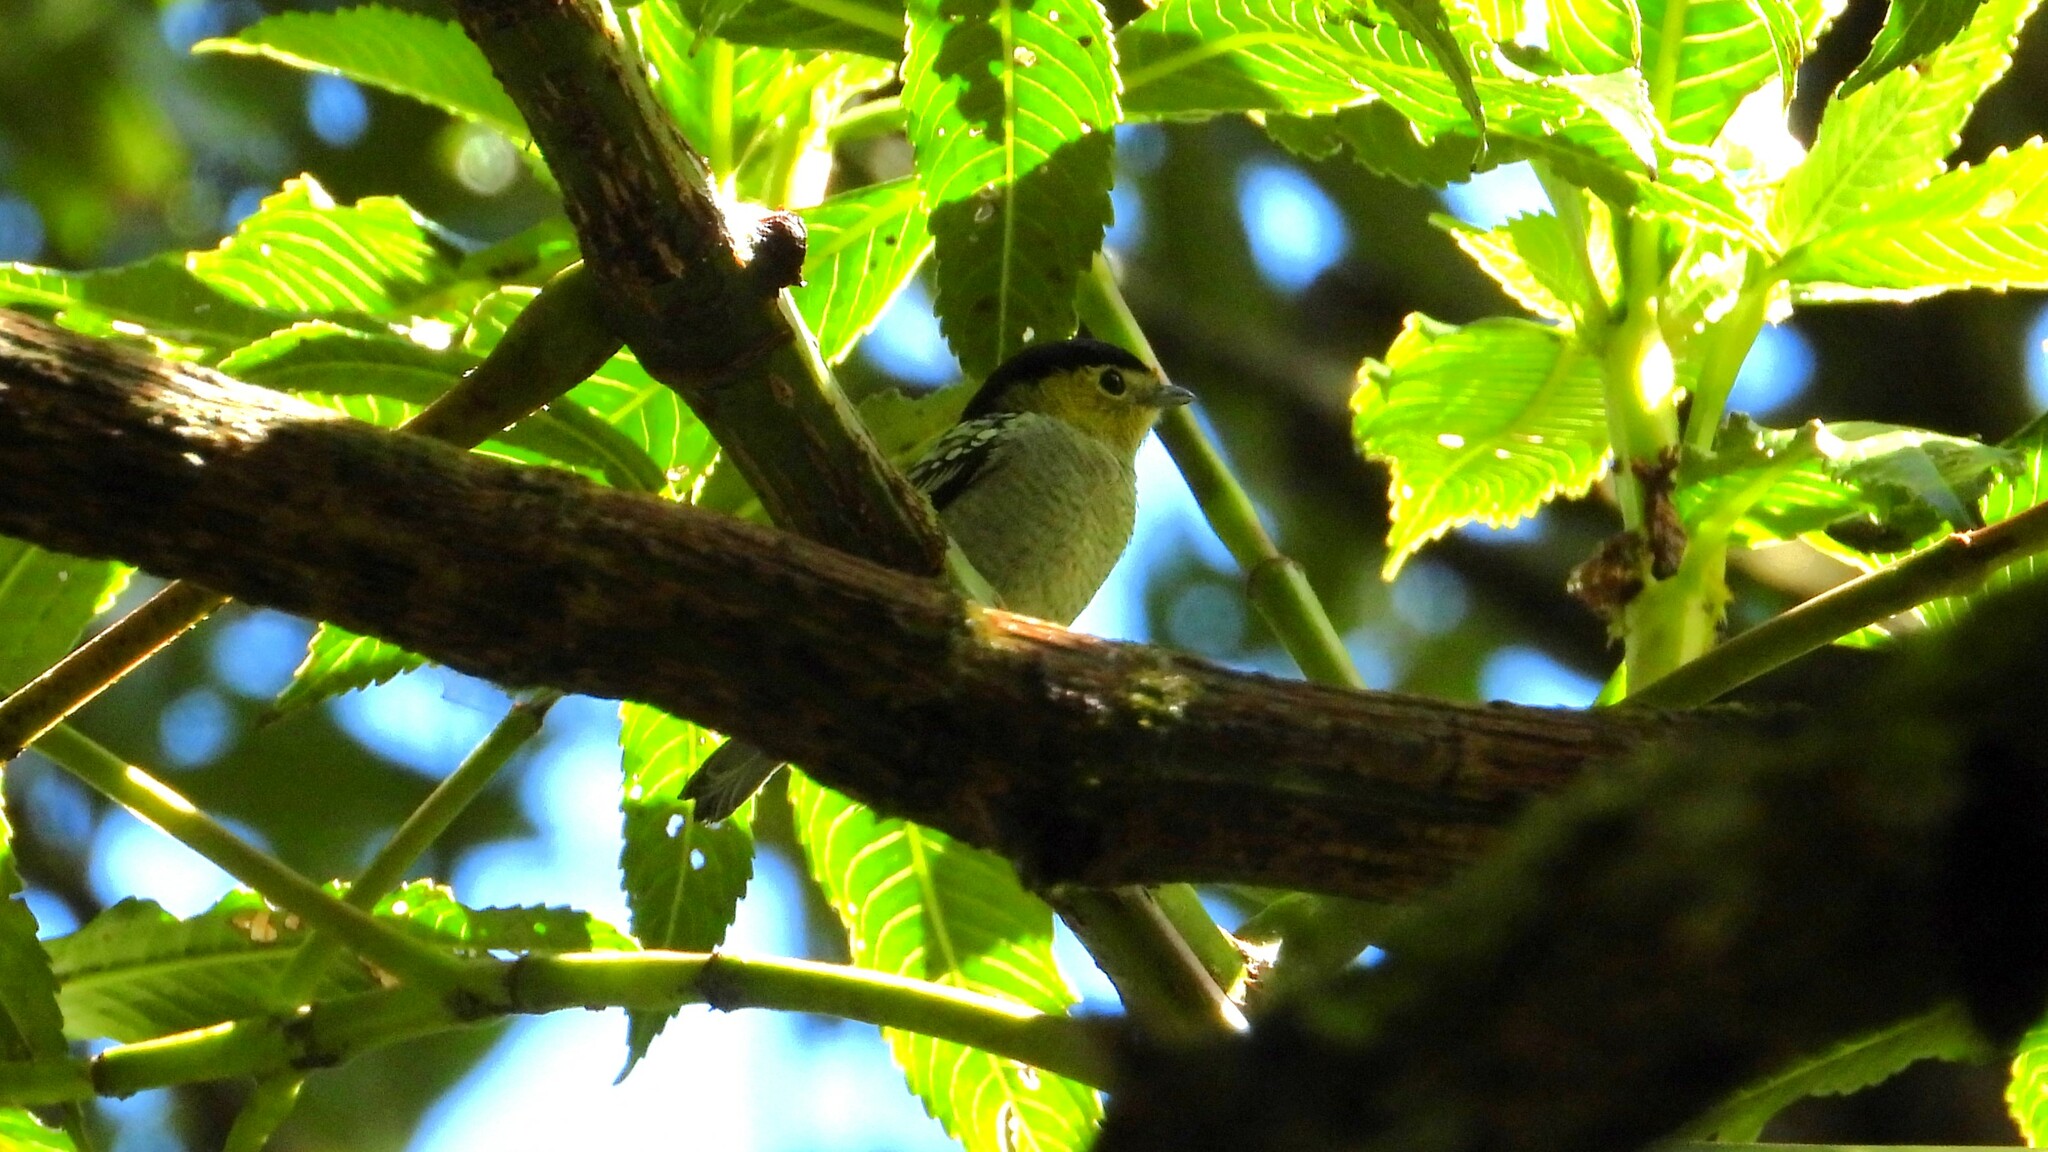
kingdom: Animalia
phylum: Chordata
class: Aves
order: Passeriformes
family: Cotingidae
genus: Pachyramphus
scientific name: Pachyramphus versicolor
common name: Barred becard
